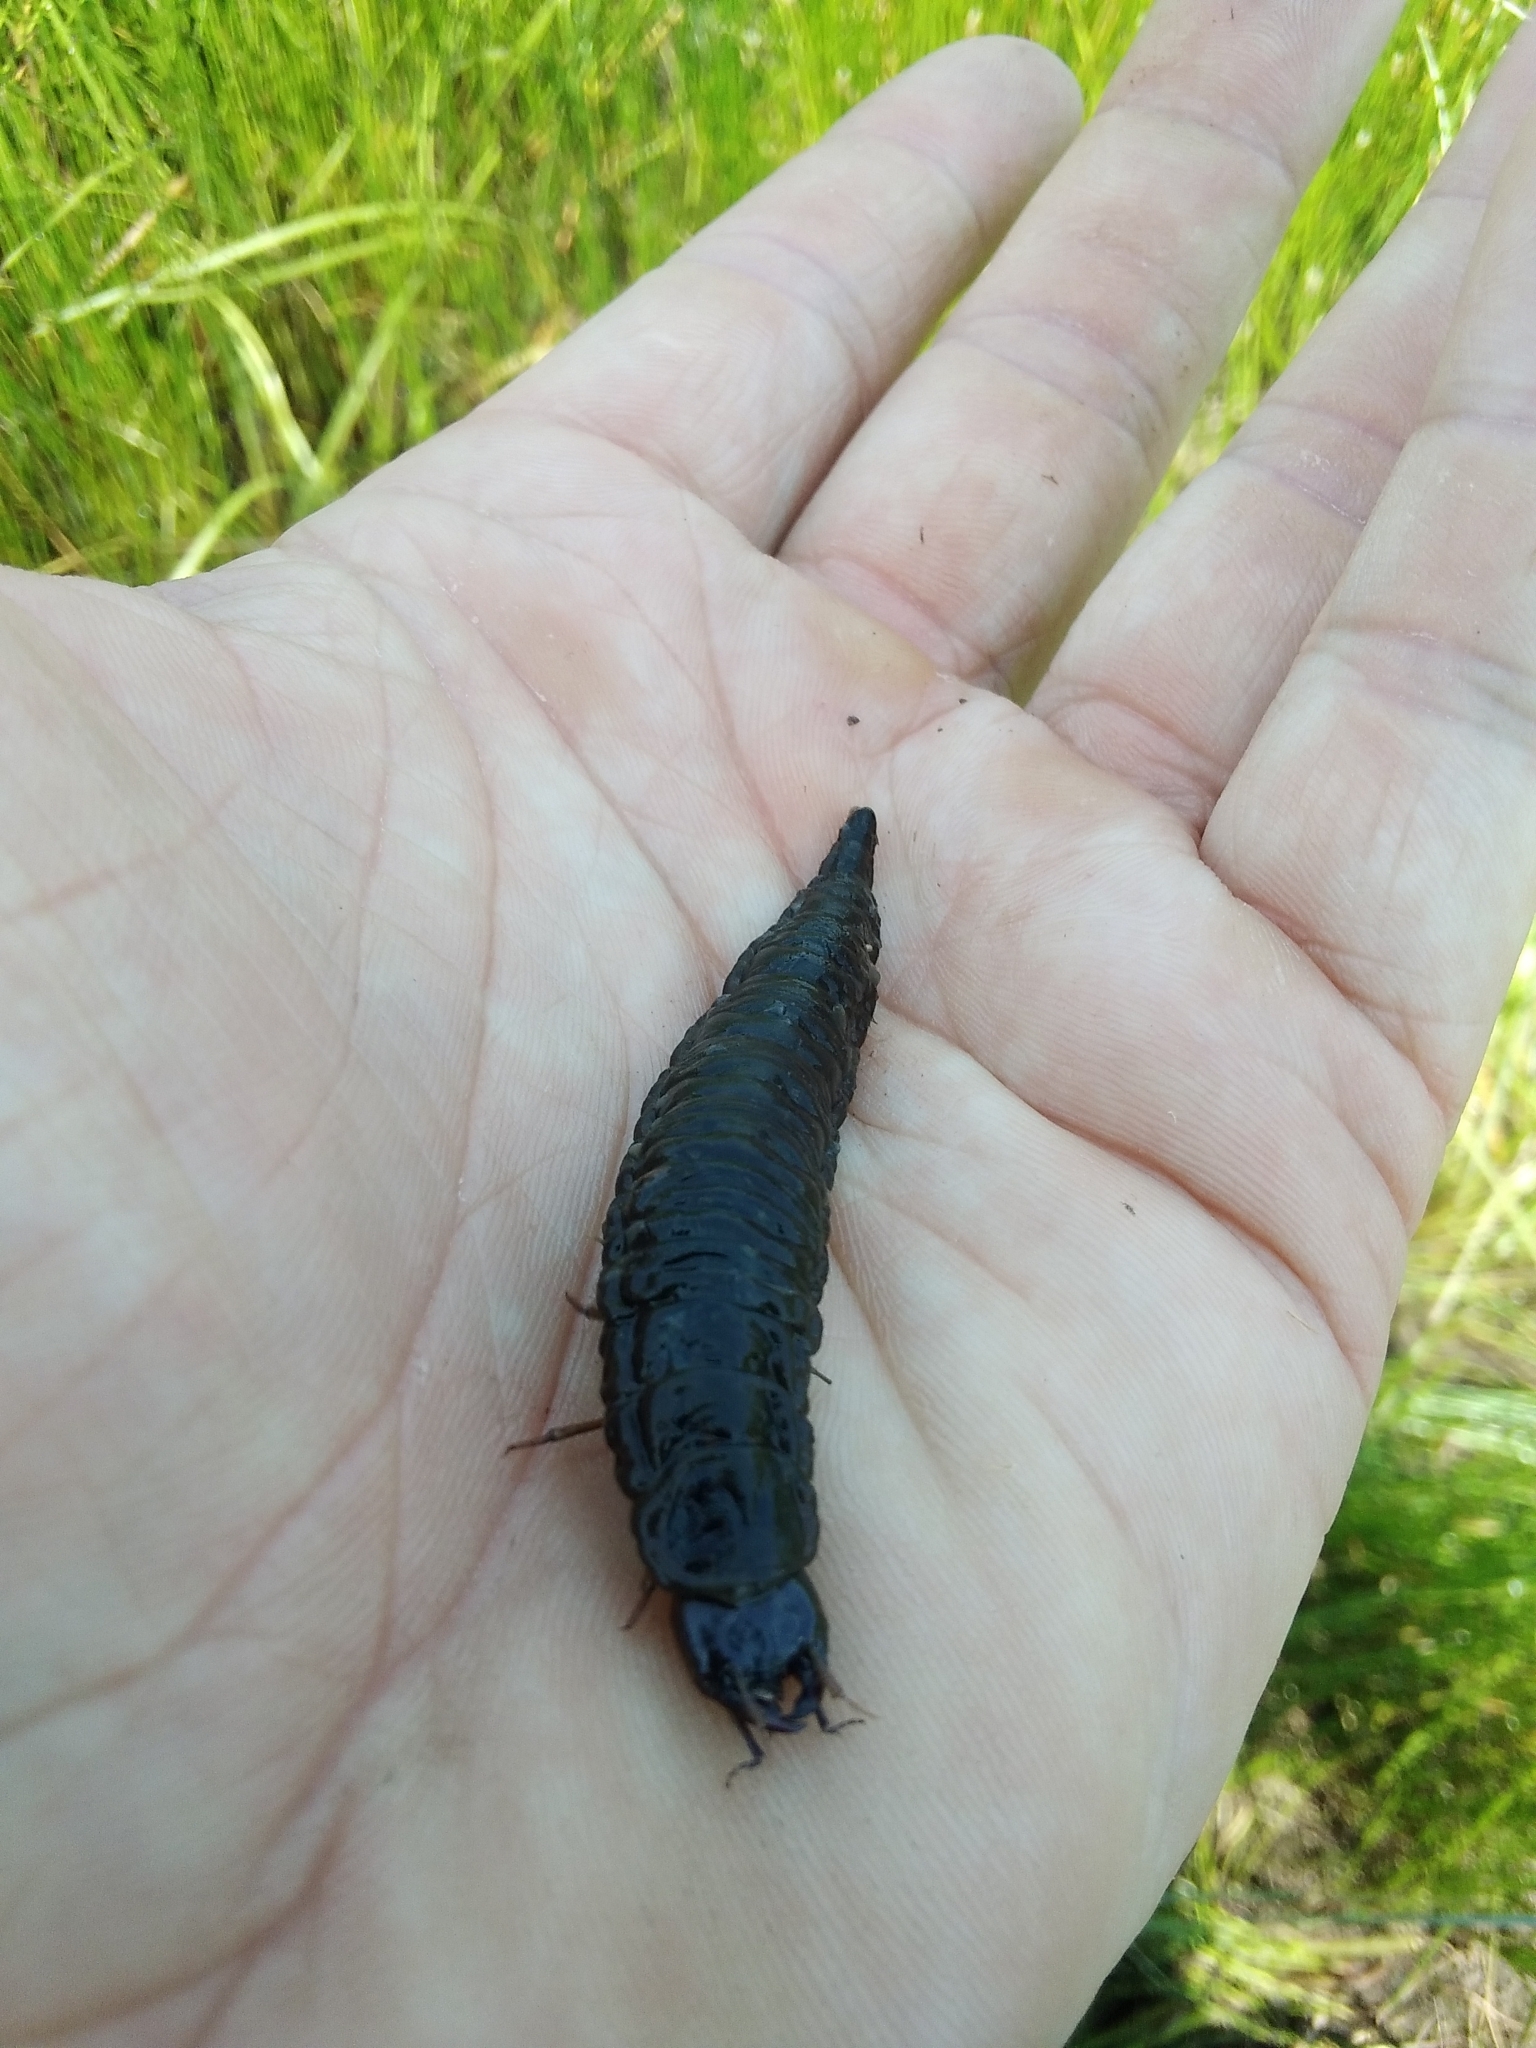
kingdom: Animalia
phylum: Arthropoda
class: Insecta
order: Coleoptera
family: Hydrophilidae
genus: Hydrophilus
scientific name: Hydrophilus
